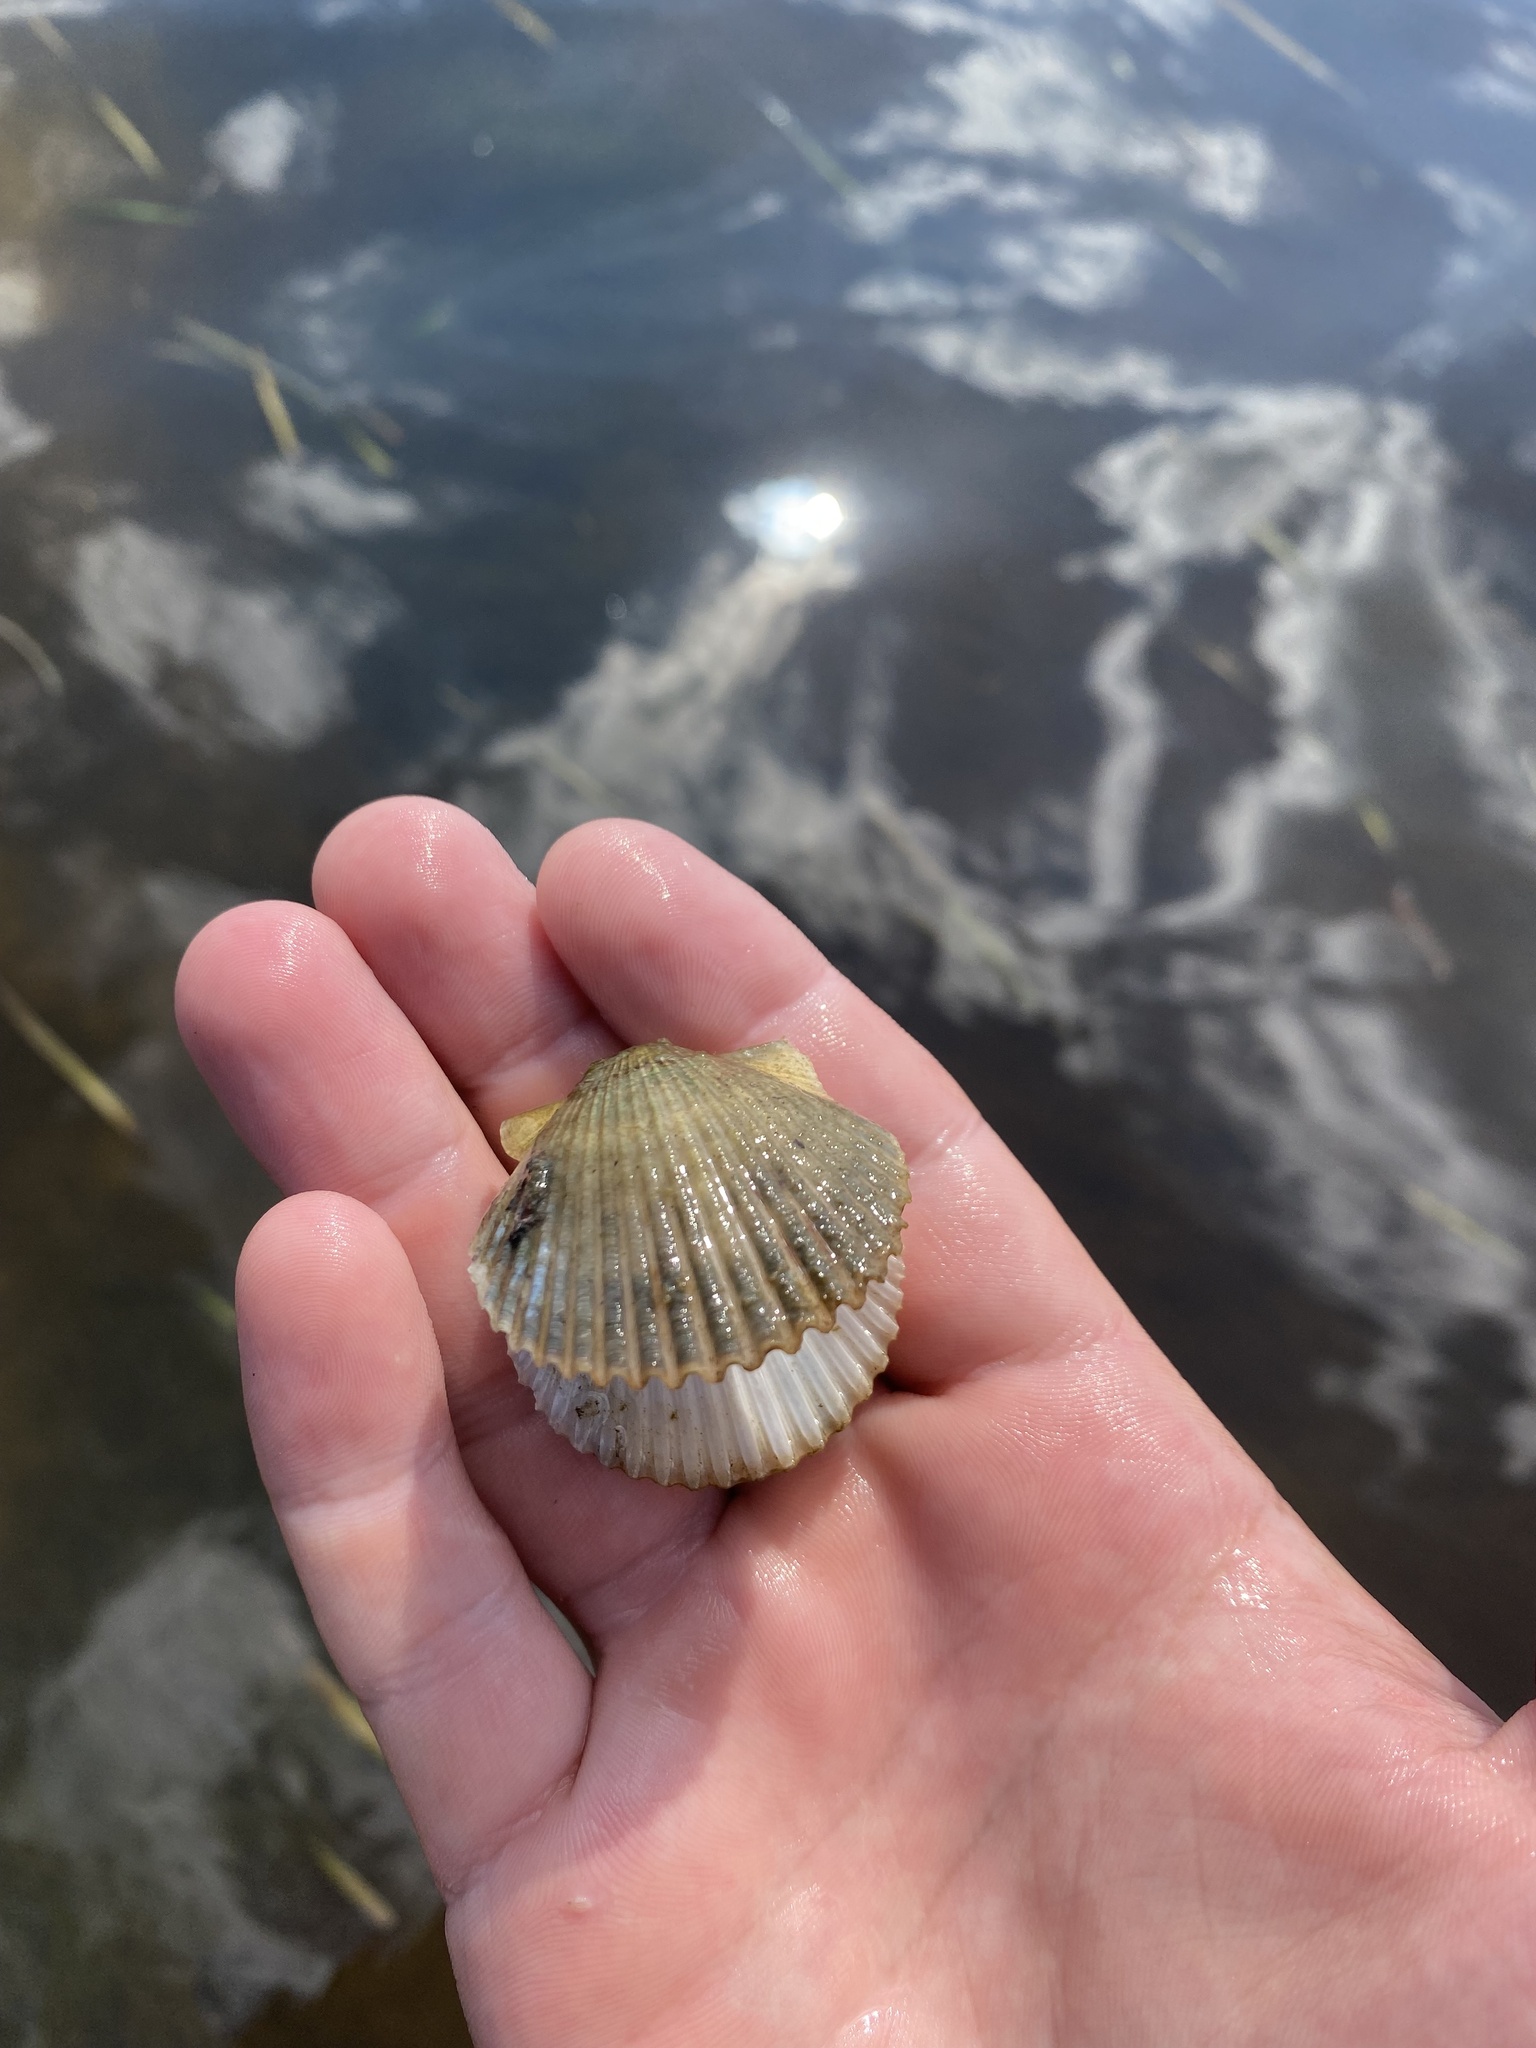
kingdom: Animalia
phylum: Mollusca
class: Bivalvia
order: Pectinida
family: Pectinidae
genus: Argopecten
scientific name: Argopecten irradians
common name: Atlantic bay scallop
